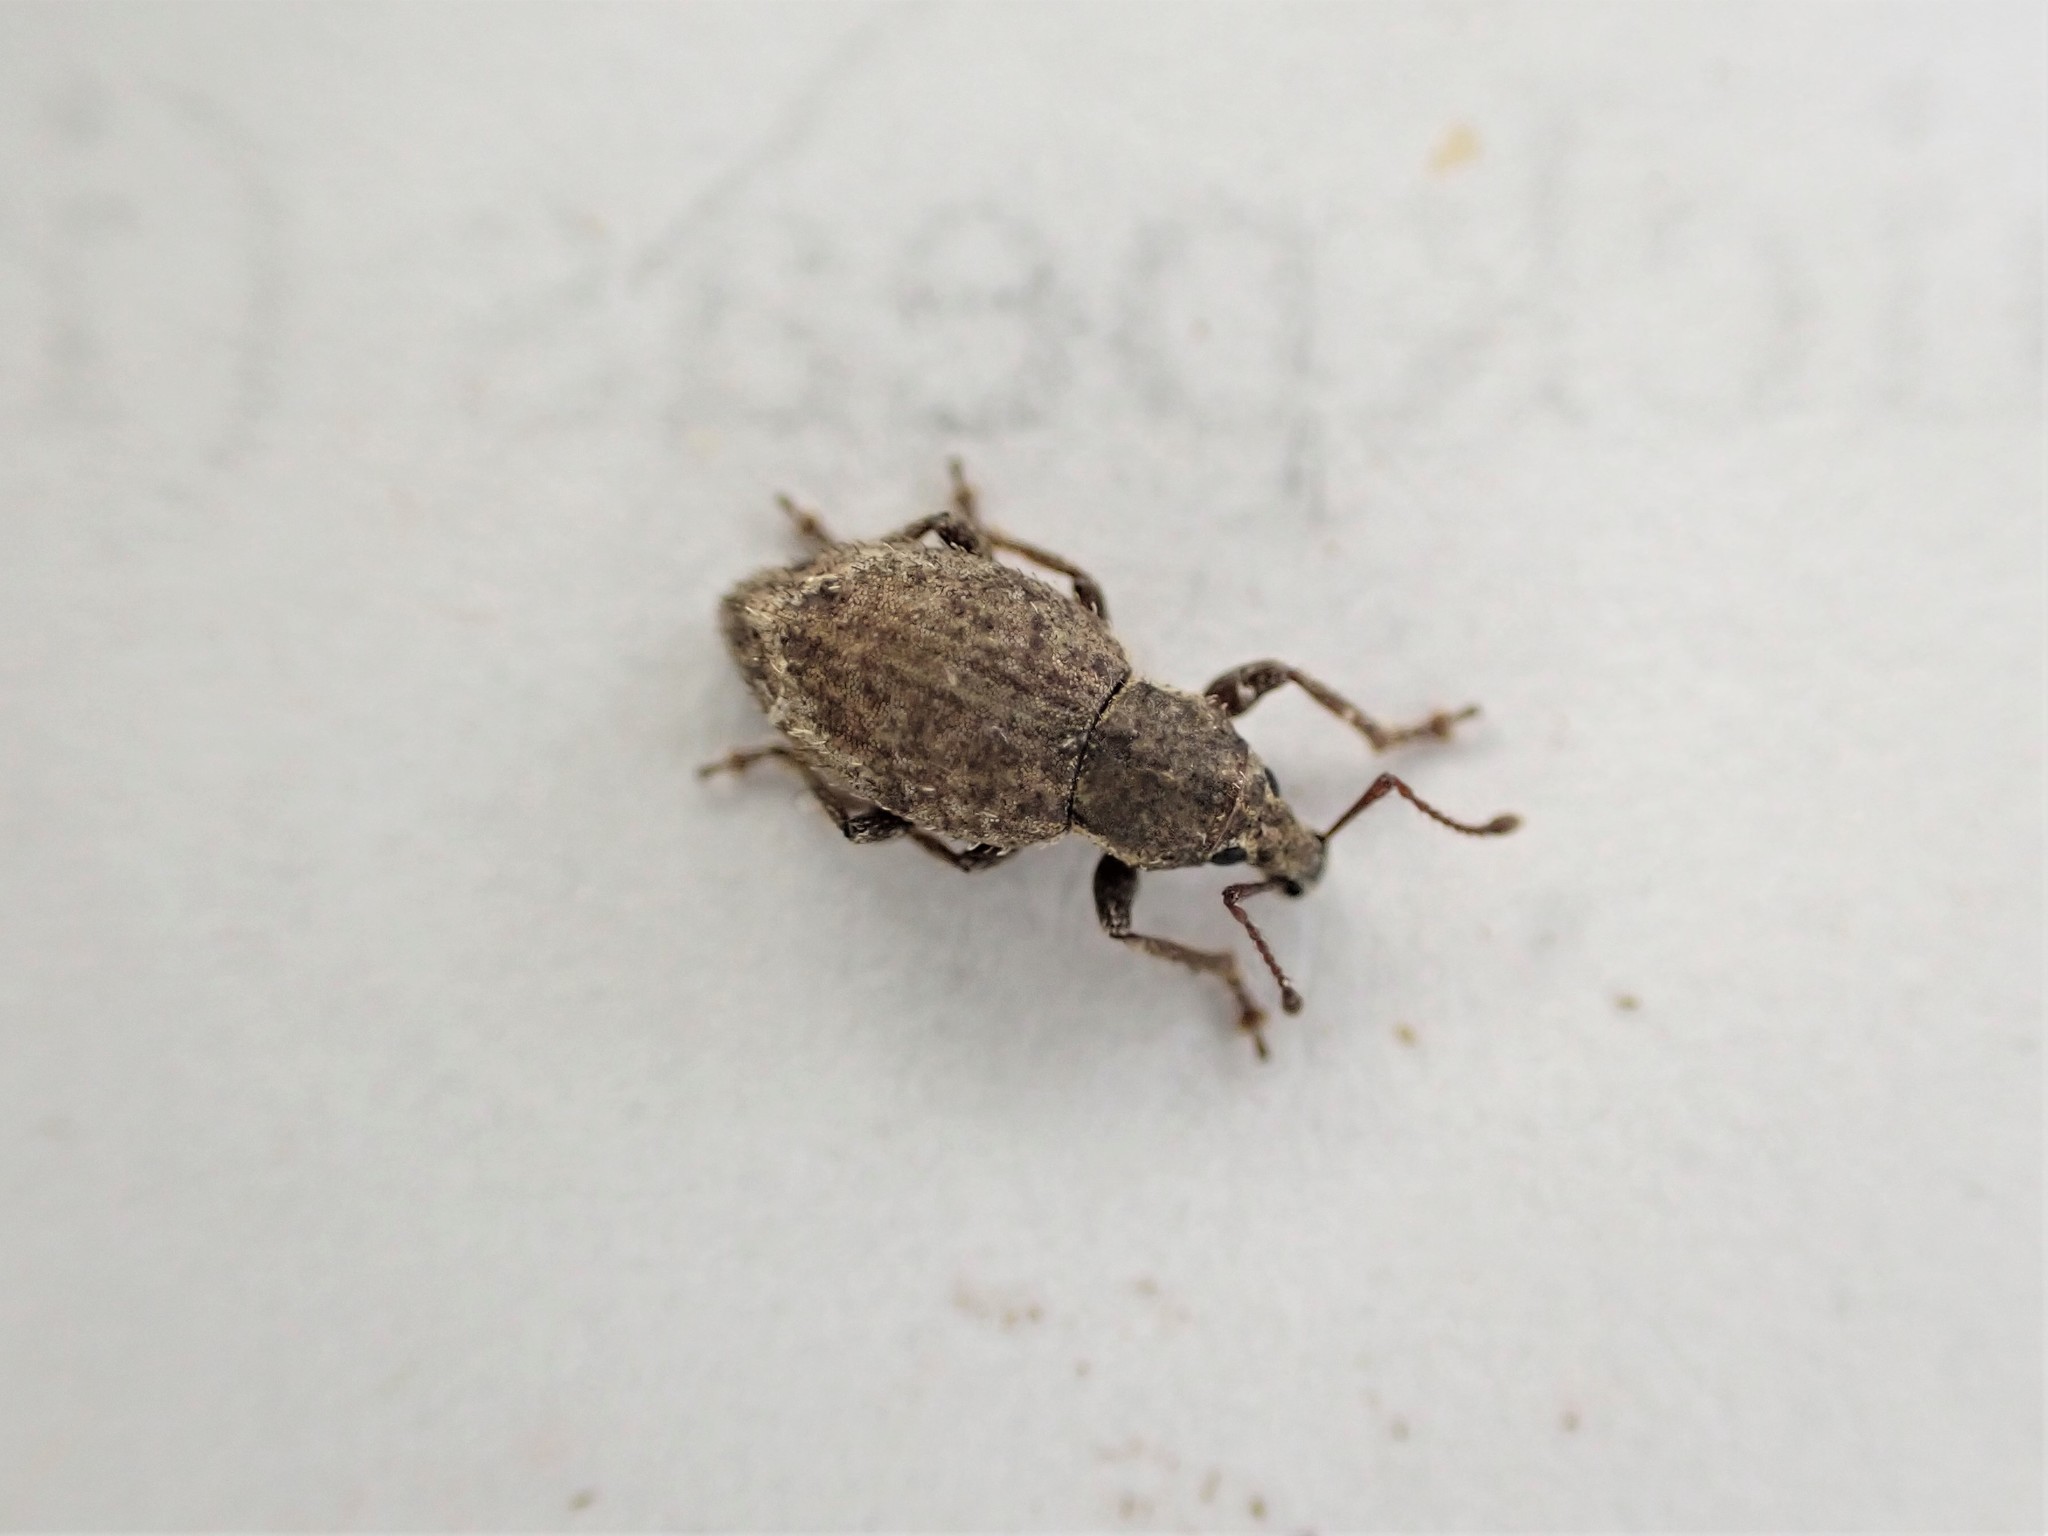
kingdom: Animalia
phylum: Arthropoda
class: Insecta
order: Coleoptera
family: Curculionidae
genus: Chalepistes
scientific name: Chalepistes compressus
